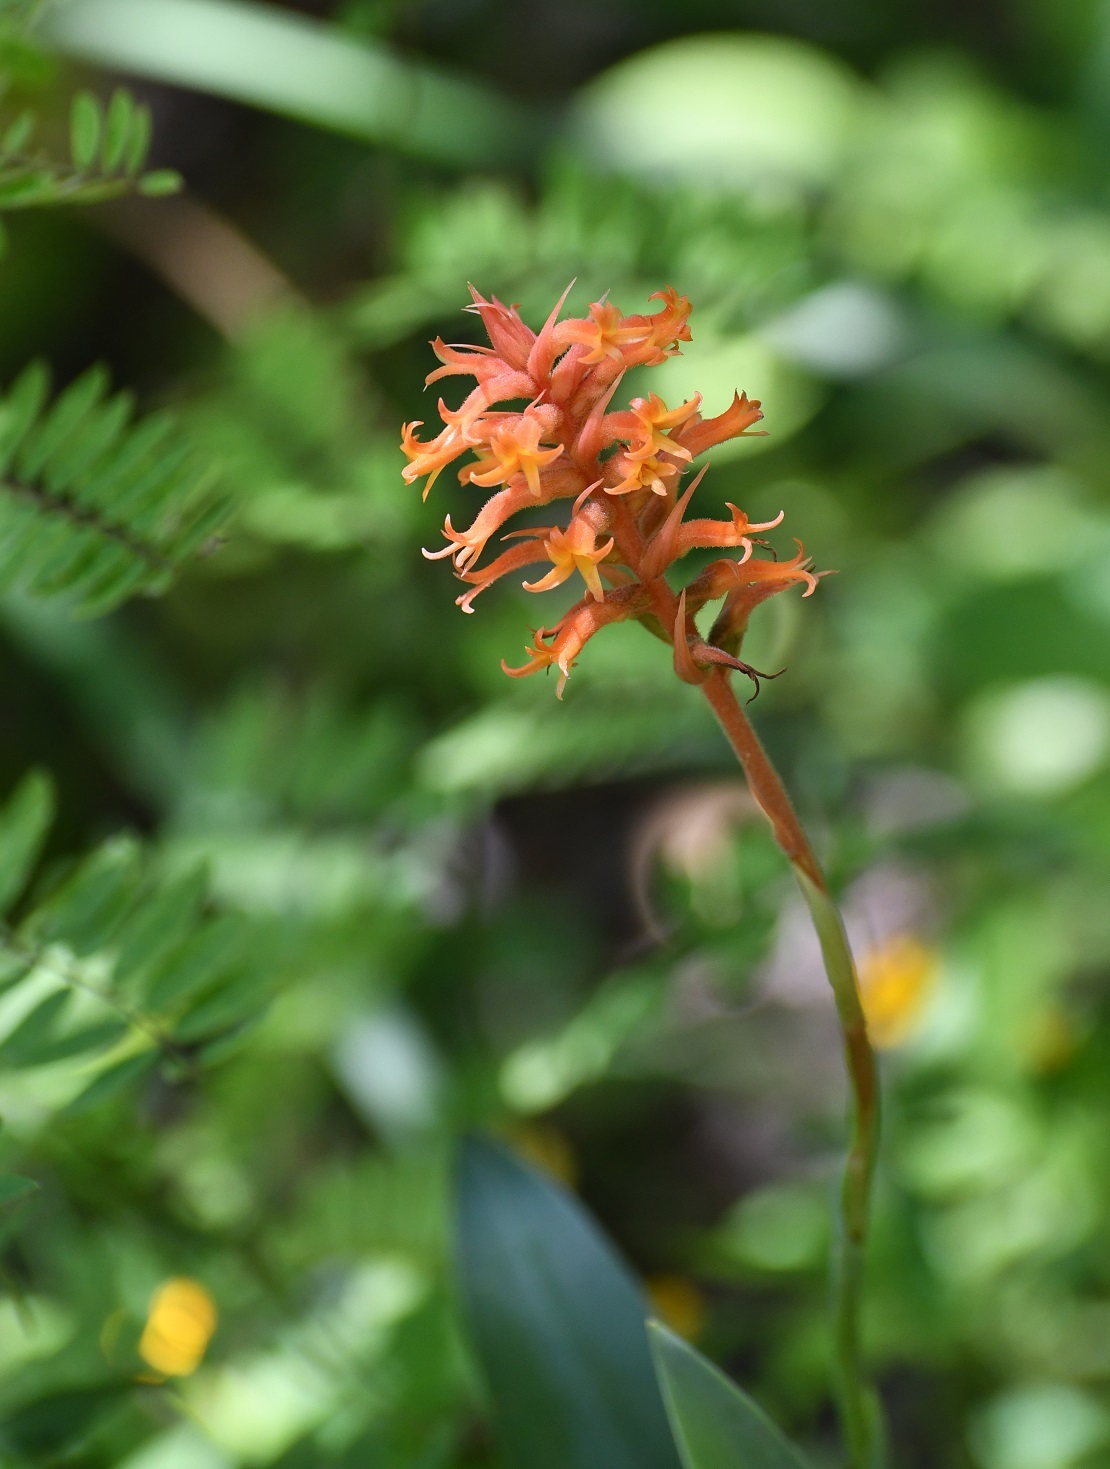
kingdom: Plantae
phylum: Tracheophyta
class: Liliopsida
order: Asparagales
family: Orchidaceae
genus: Dichromanthus
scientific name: Dichromanthus cinnabarinus
